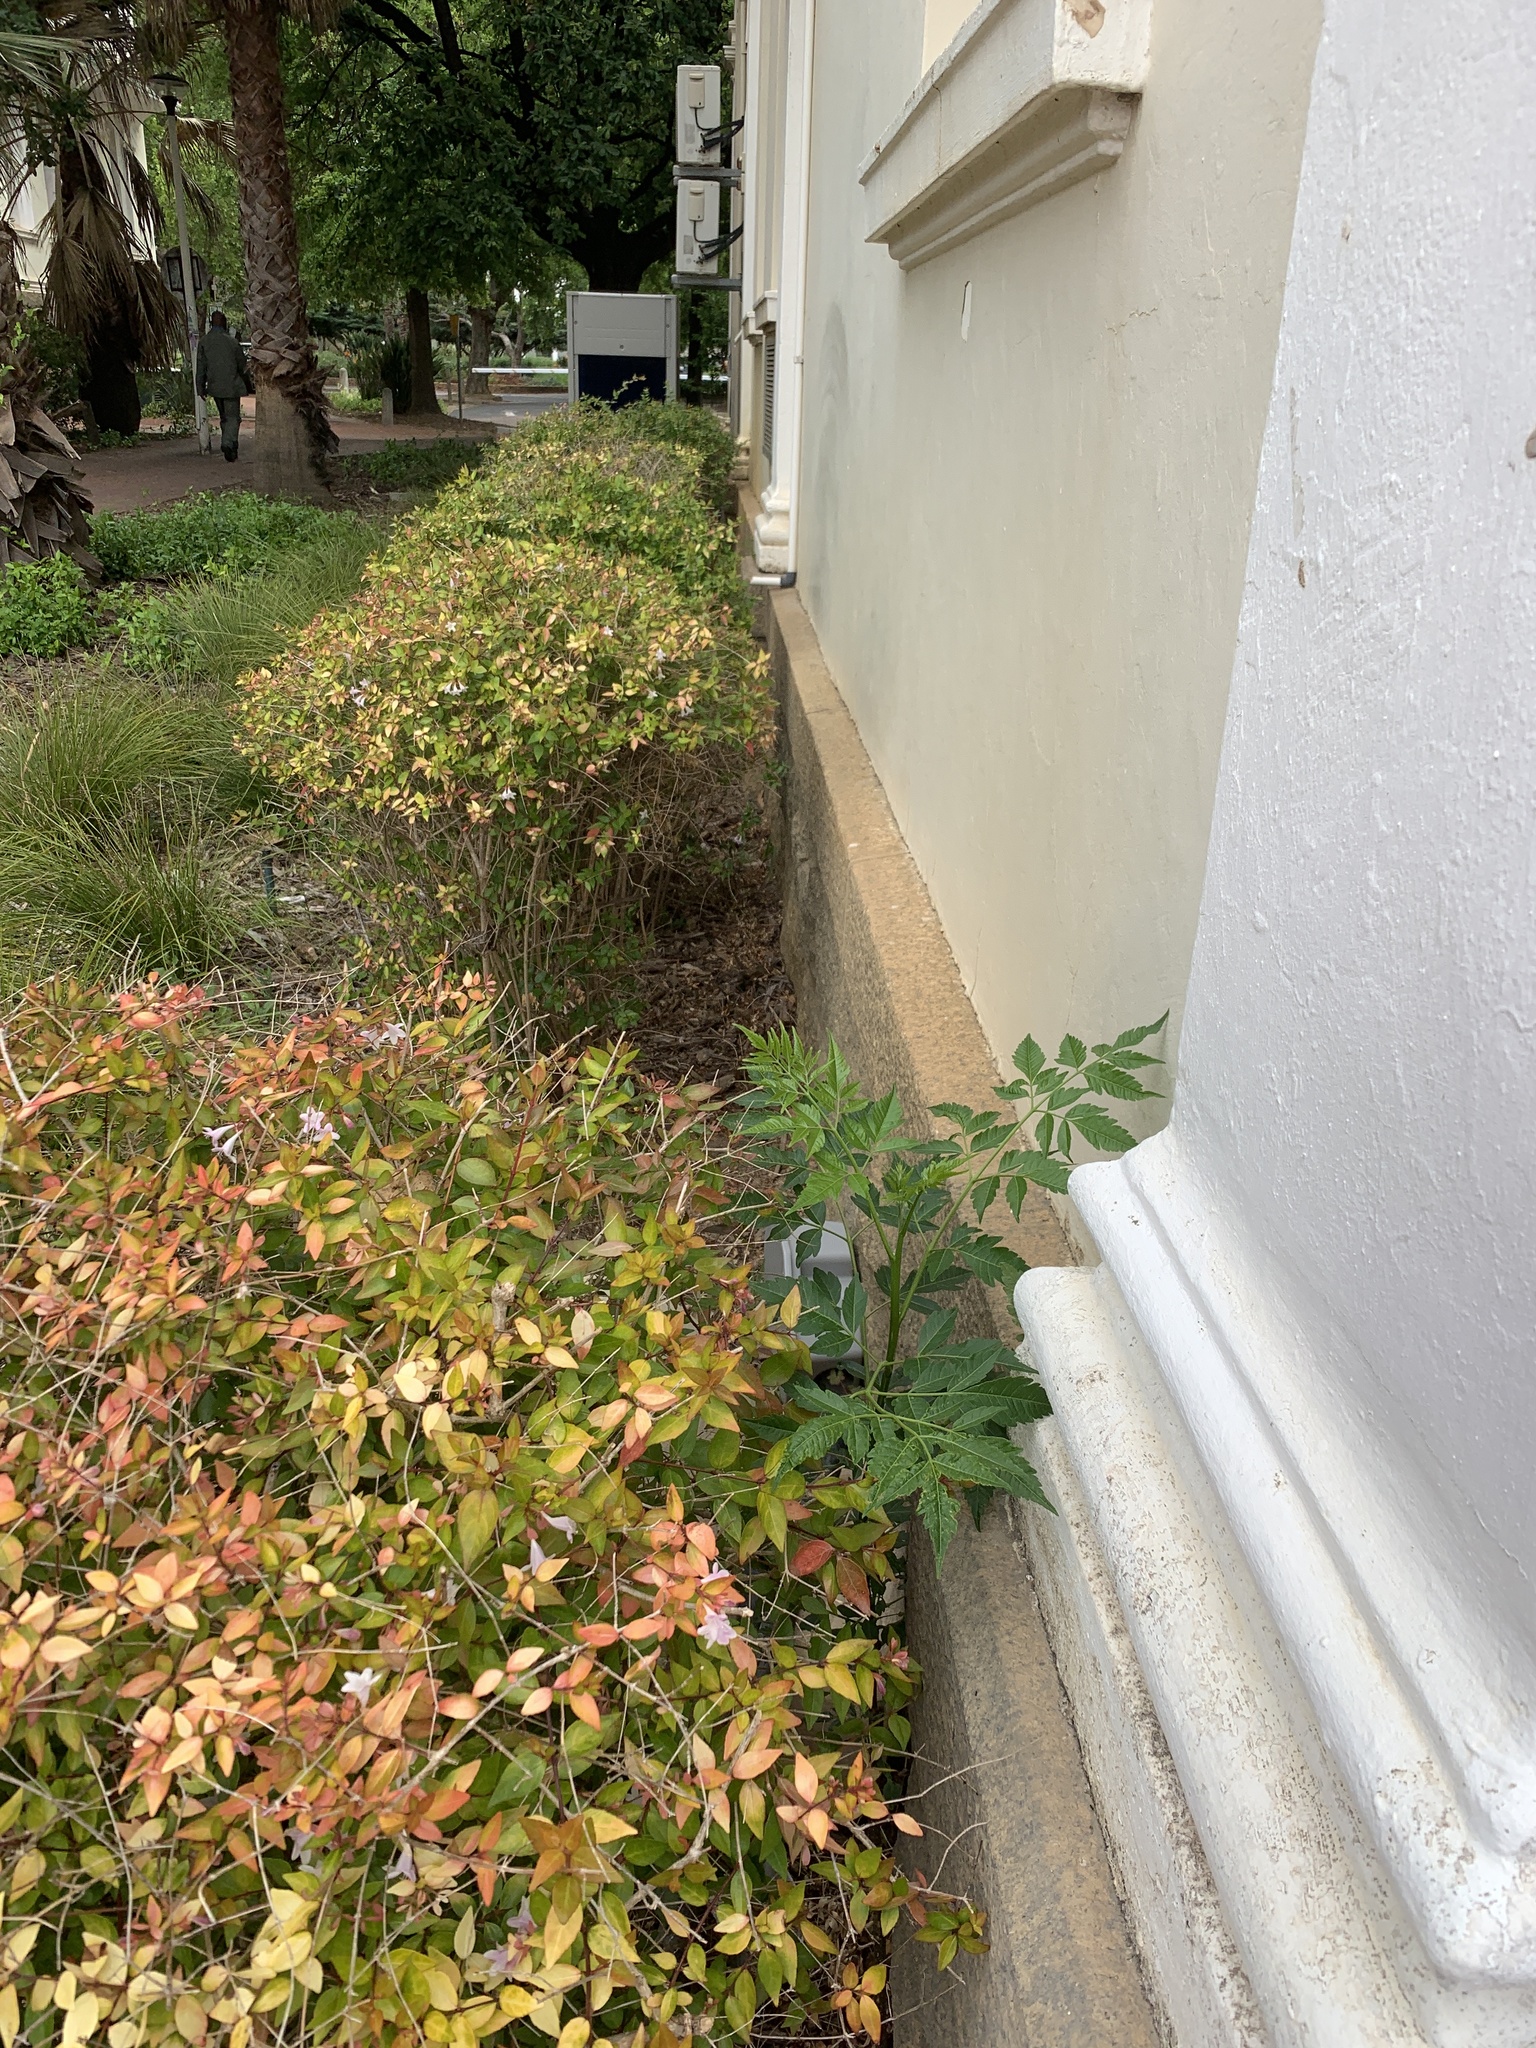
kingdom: Plantae
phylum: Tracheophyta
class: Magnoliopsida
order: Sapindales
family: Meliaceae
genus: Melia
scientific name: Melia azedarach
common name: Chinaberrytree
